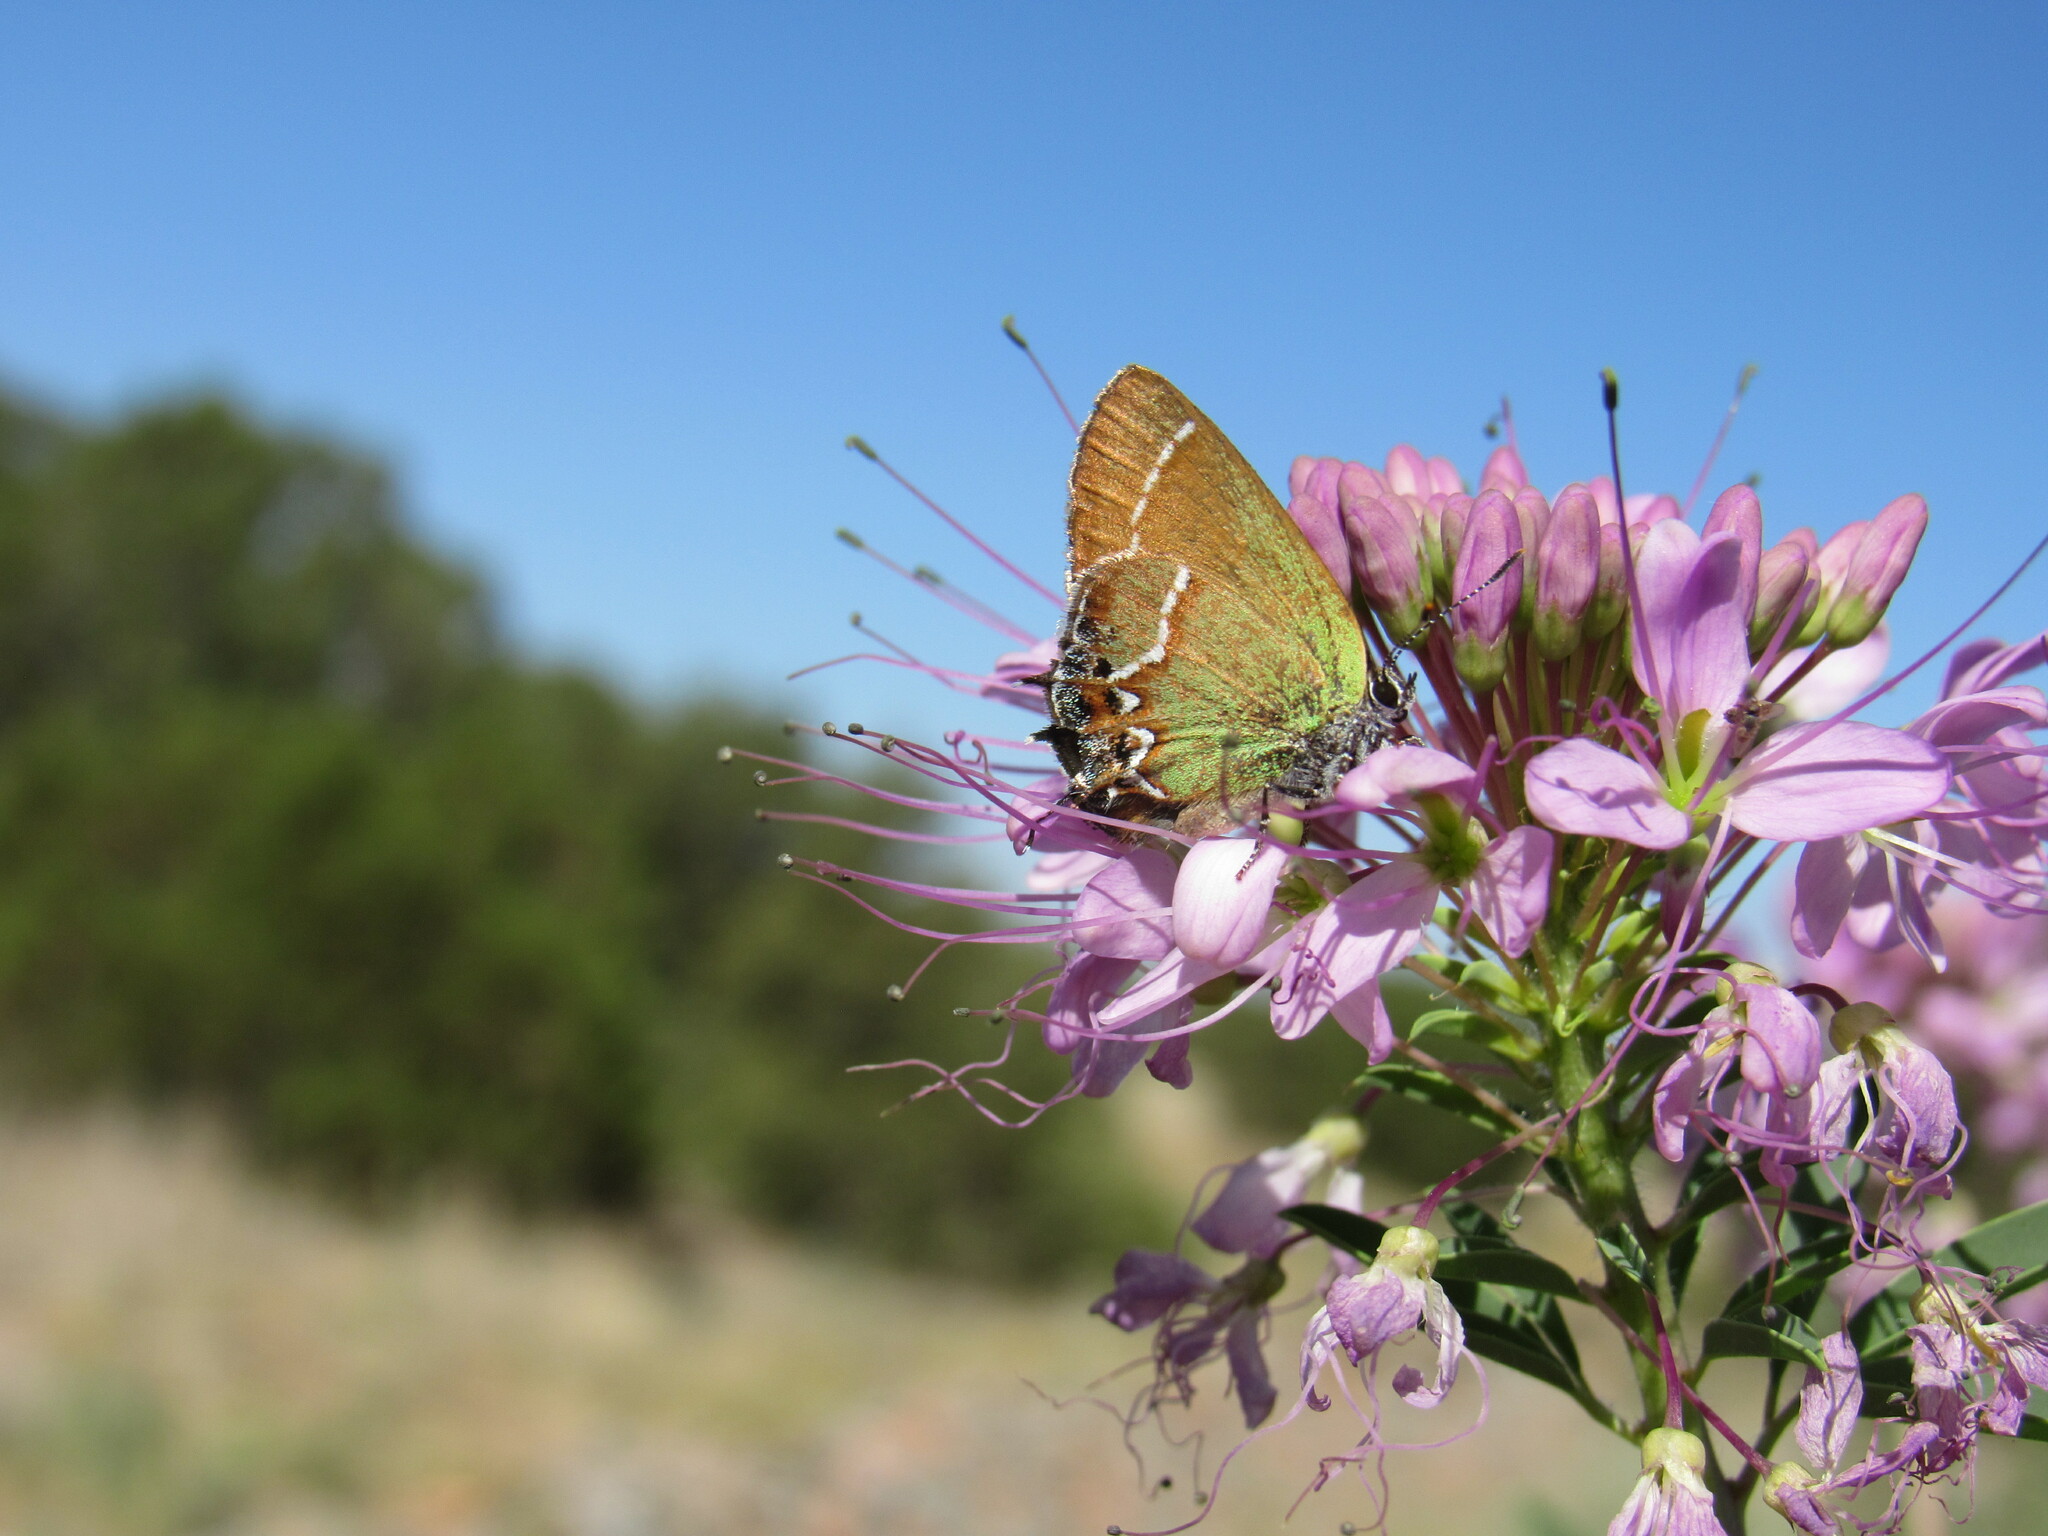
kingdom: Animalia
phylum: Arthropoda
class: Insecta
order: Lepidoptera
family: Lycaenidae
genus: Mitoura
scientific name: Mitoura gryneus
